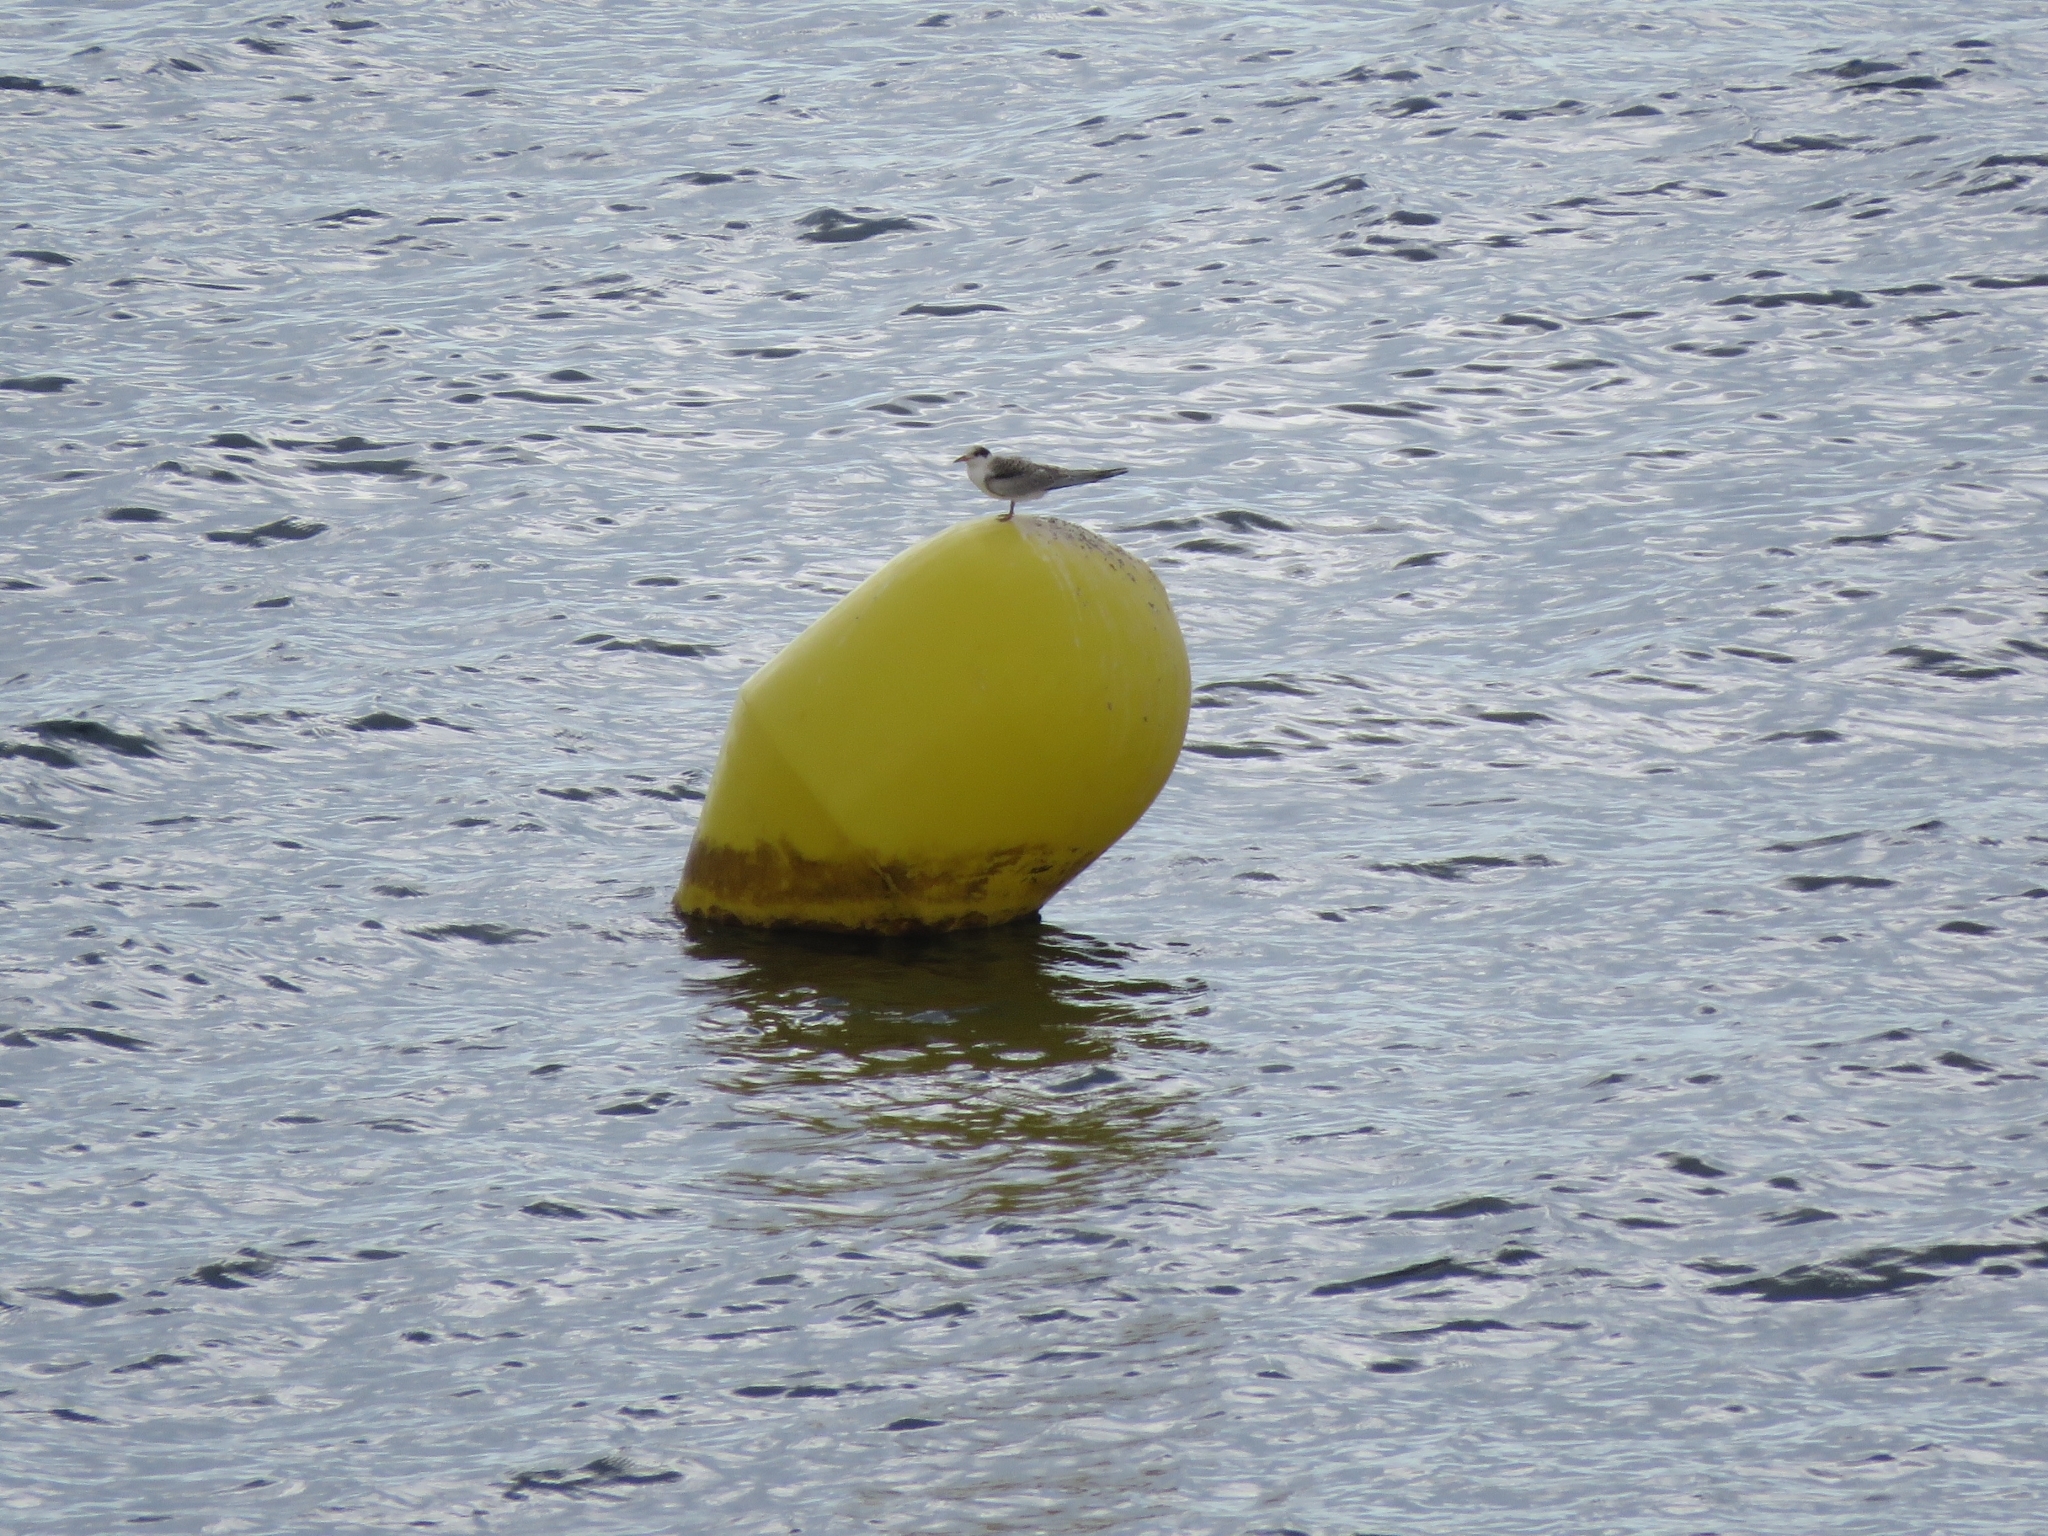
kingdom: Animalia
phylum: Chordata
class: Aves
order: Charadriiformes
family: Laridae
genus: Sterna
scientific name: Sterna hirundo
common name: Common tern
